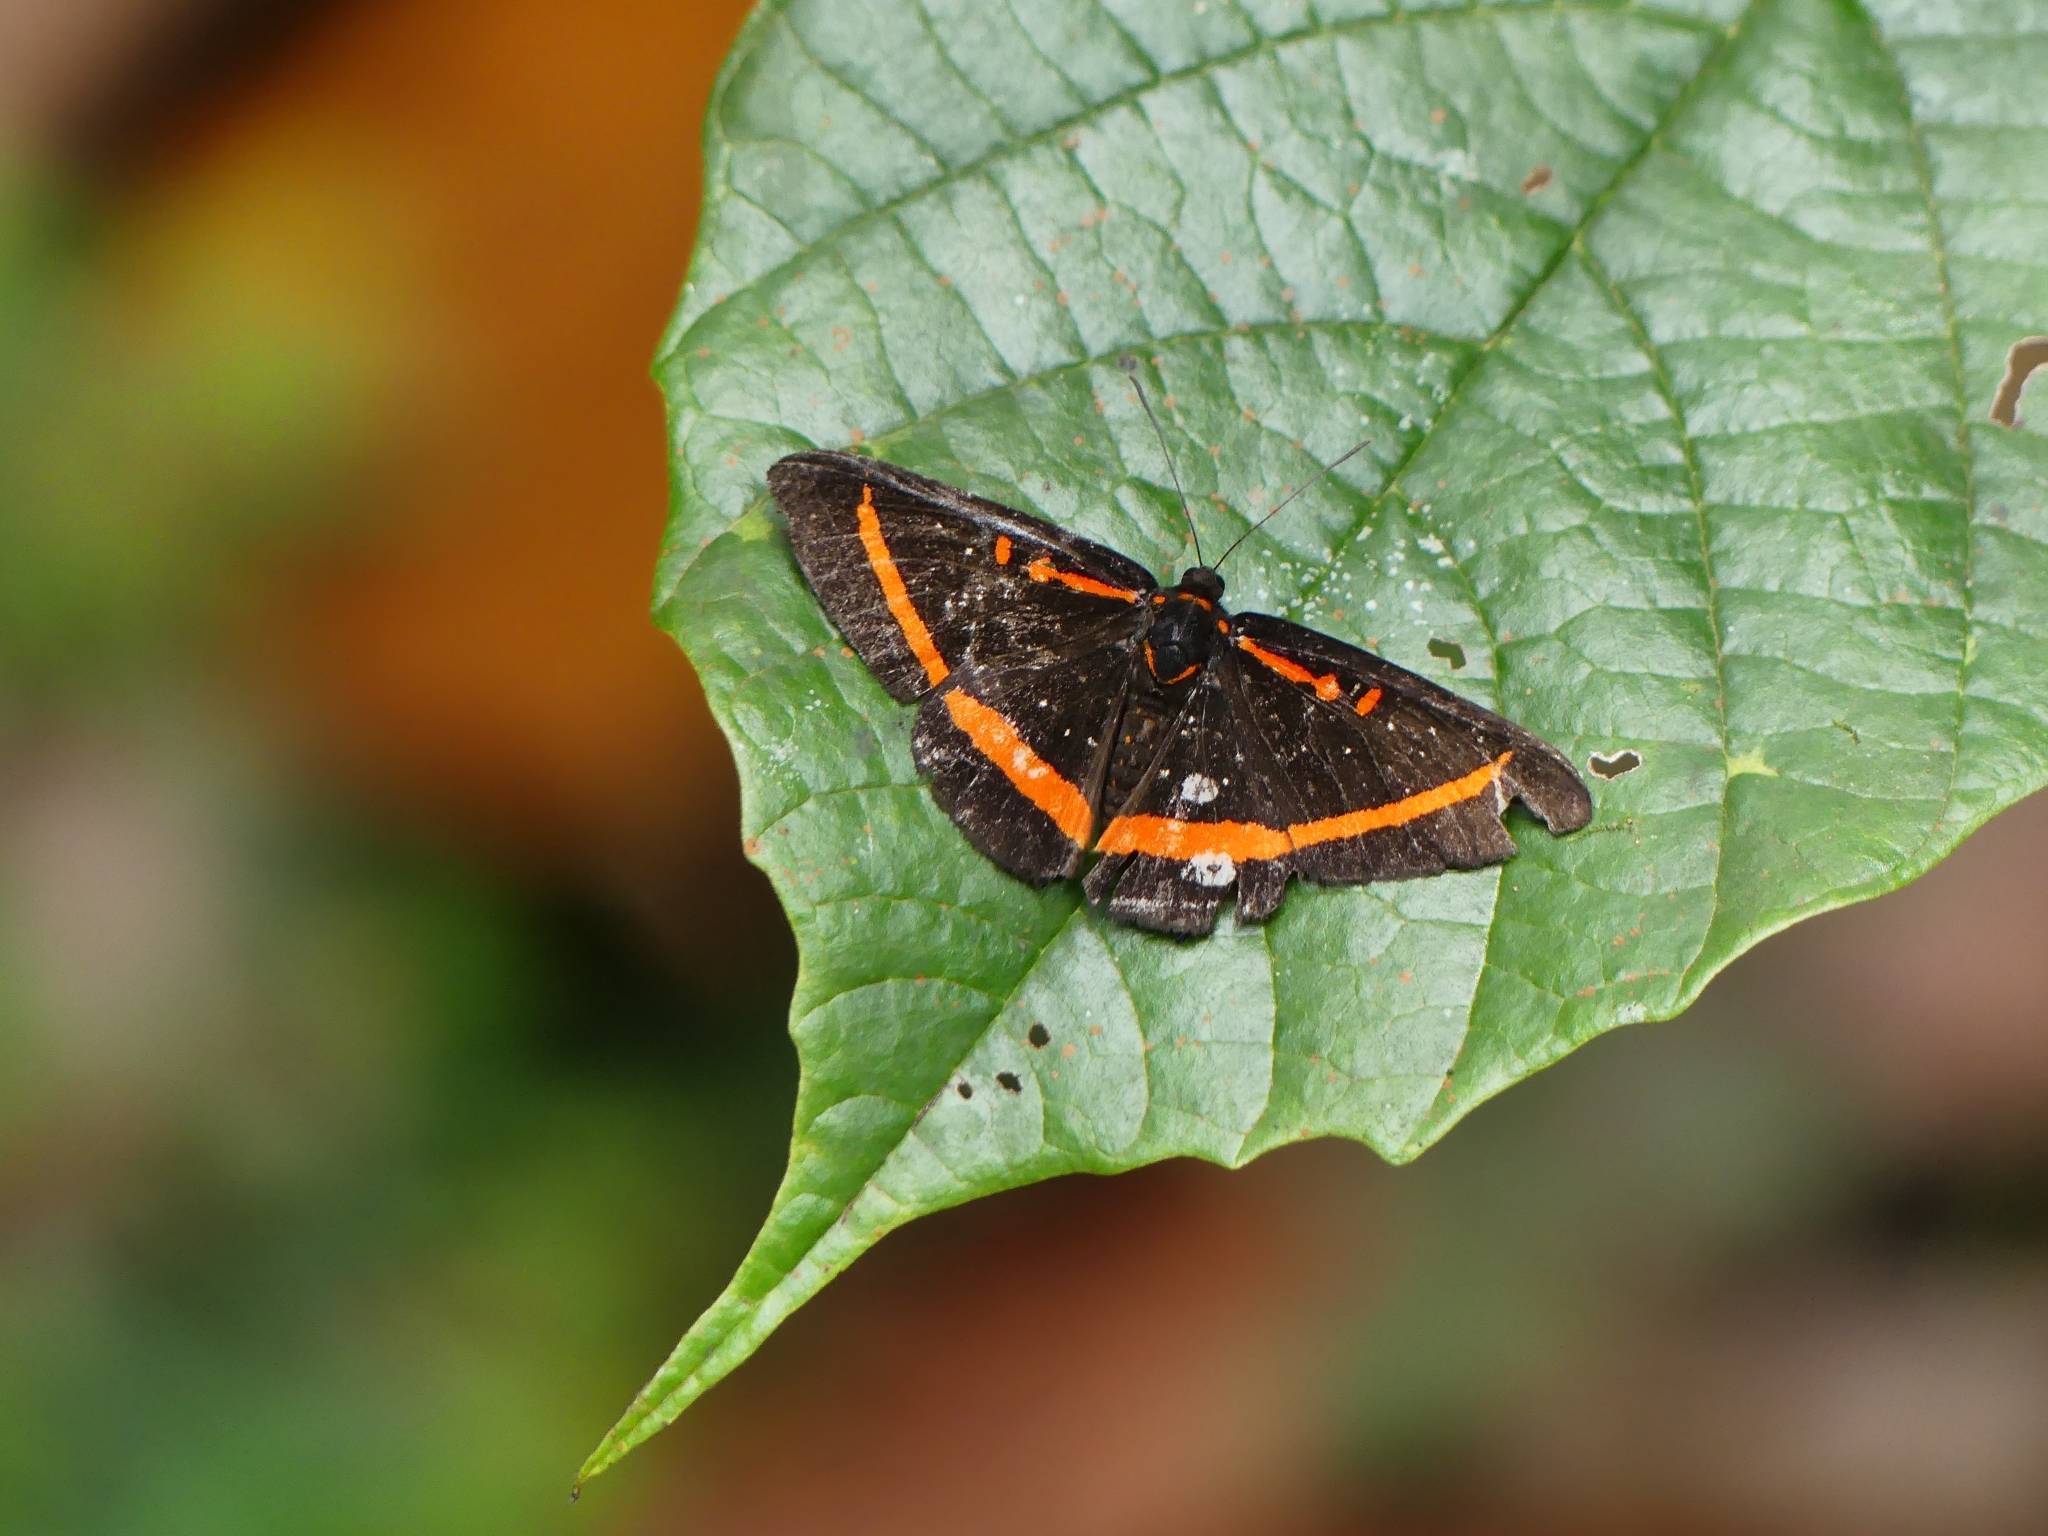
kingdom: Animalia
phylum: Arthropoda
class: Insecta
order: Lepidoptera
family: Riodinidae
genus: Amarynthis
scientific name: Amarynthis meneria
